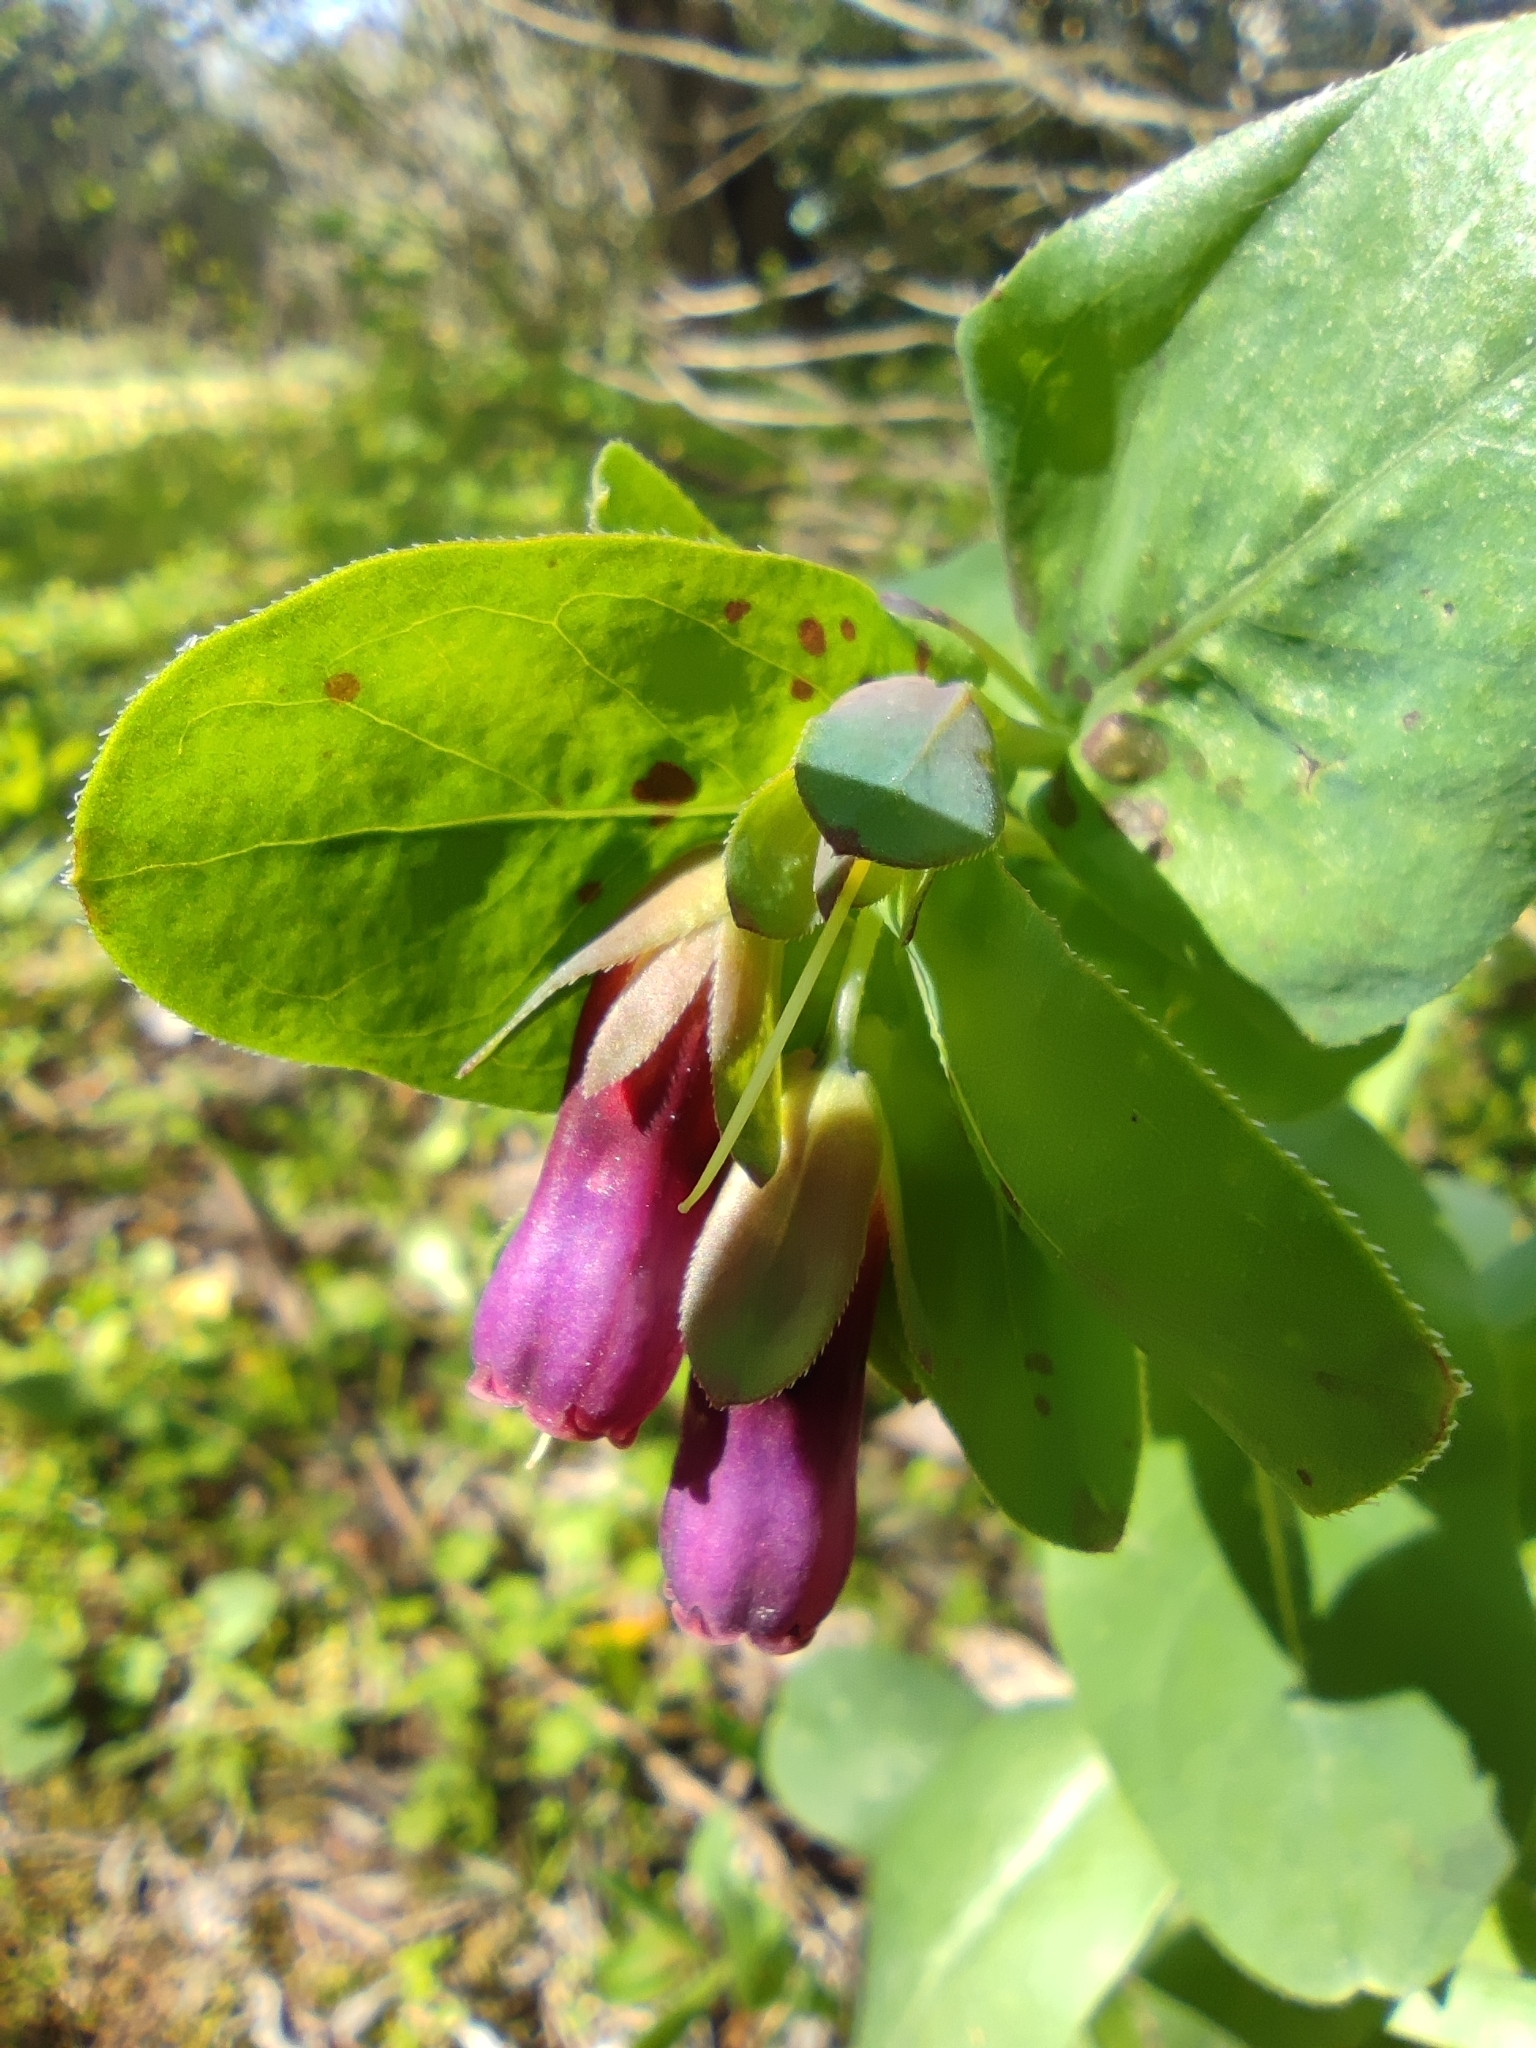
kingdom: Plantae
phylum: Tracheophyta
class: Magnoliopsida
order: Boraginales
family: Boraginaceae
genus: Cerinthe
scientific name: Cerinthe major
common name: Greater honeywort
